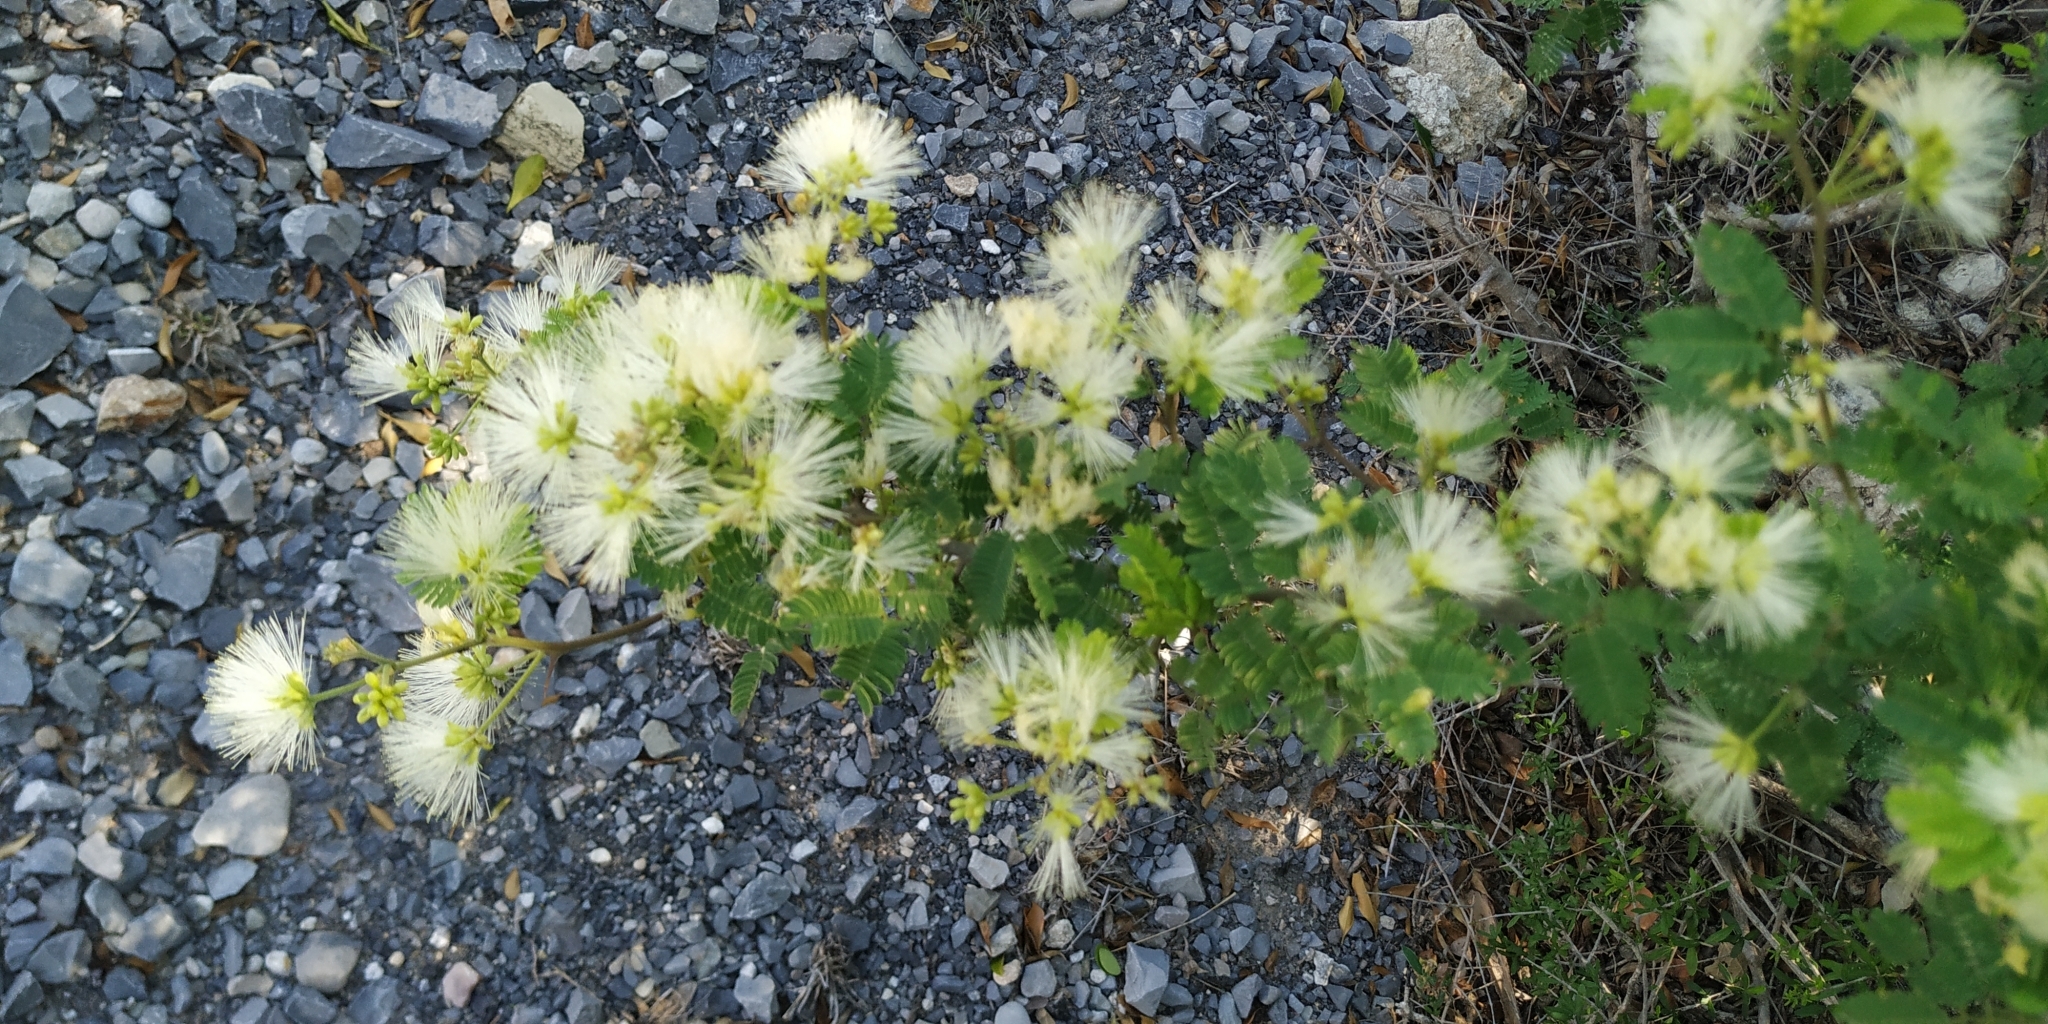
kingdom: Plantae
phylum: Tracheophyta
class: Magnoliopsida
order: Fabales
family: Fabaceae
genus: Havardia
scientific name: Havardia pallens
